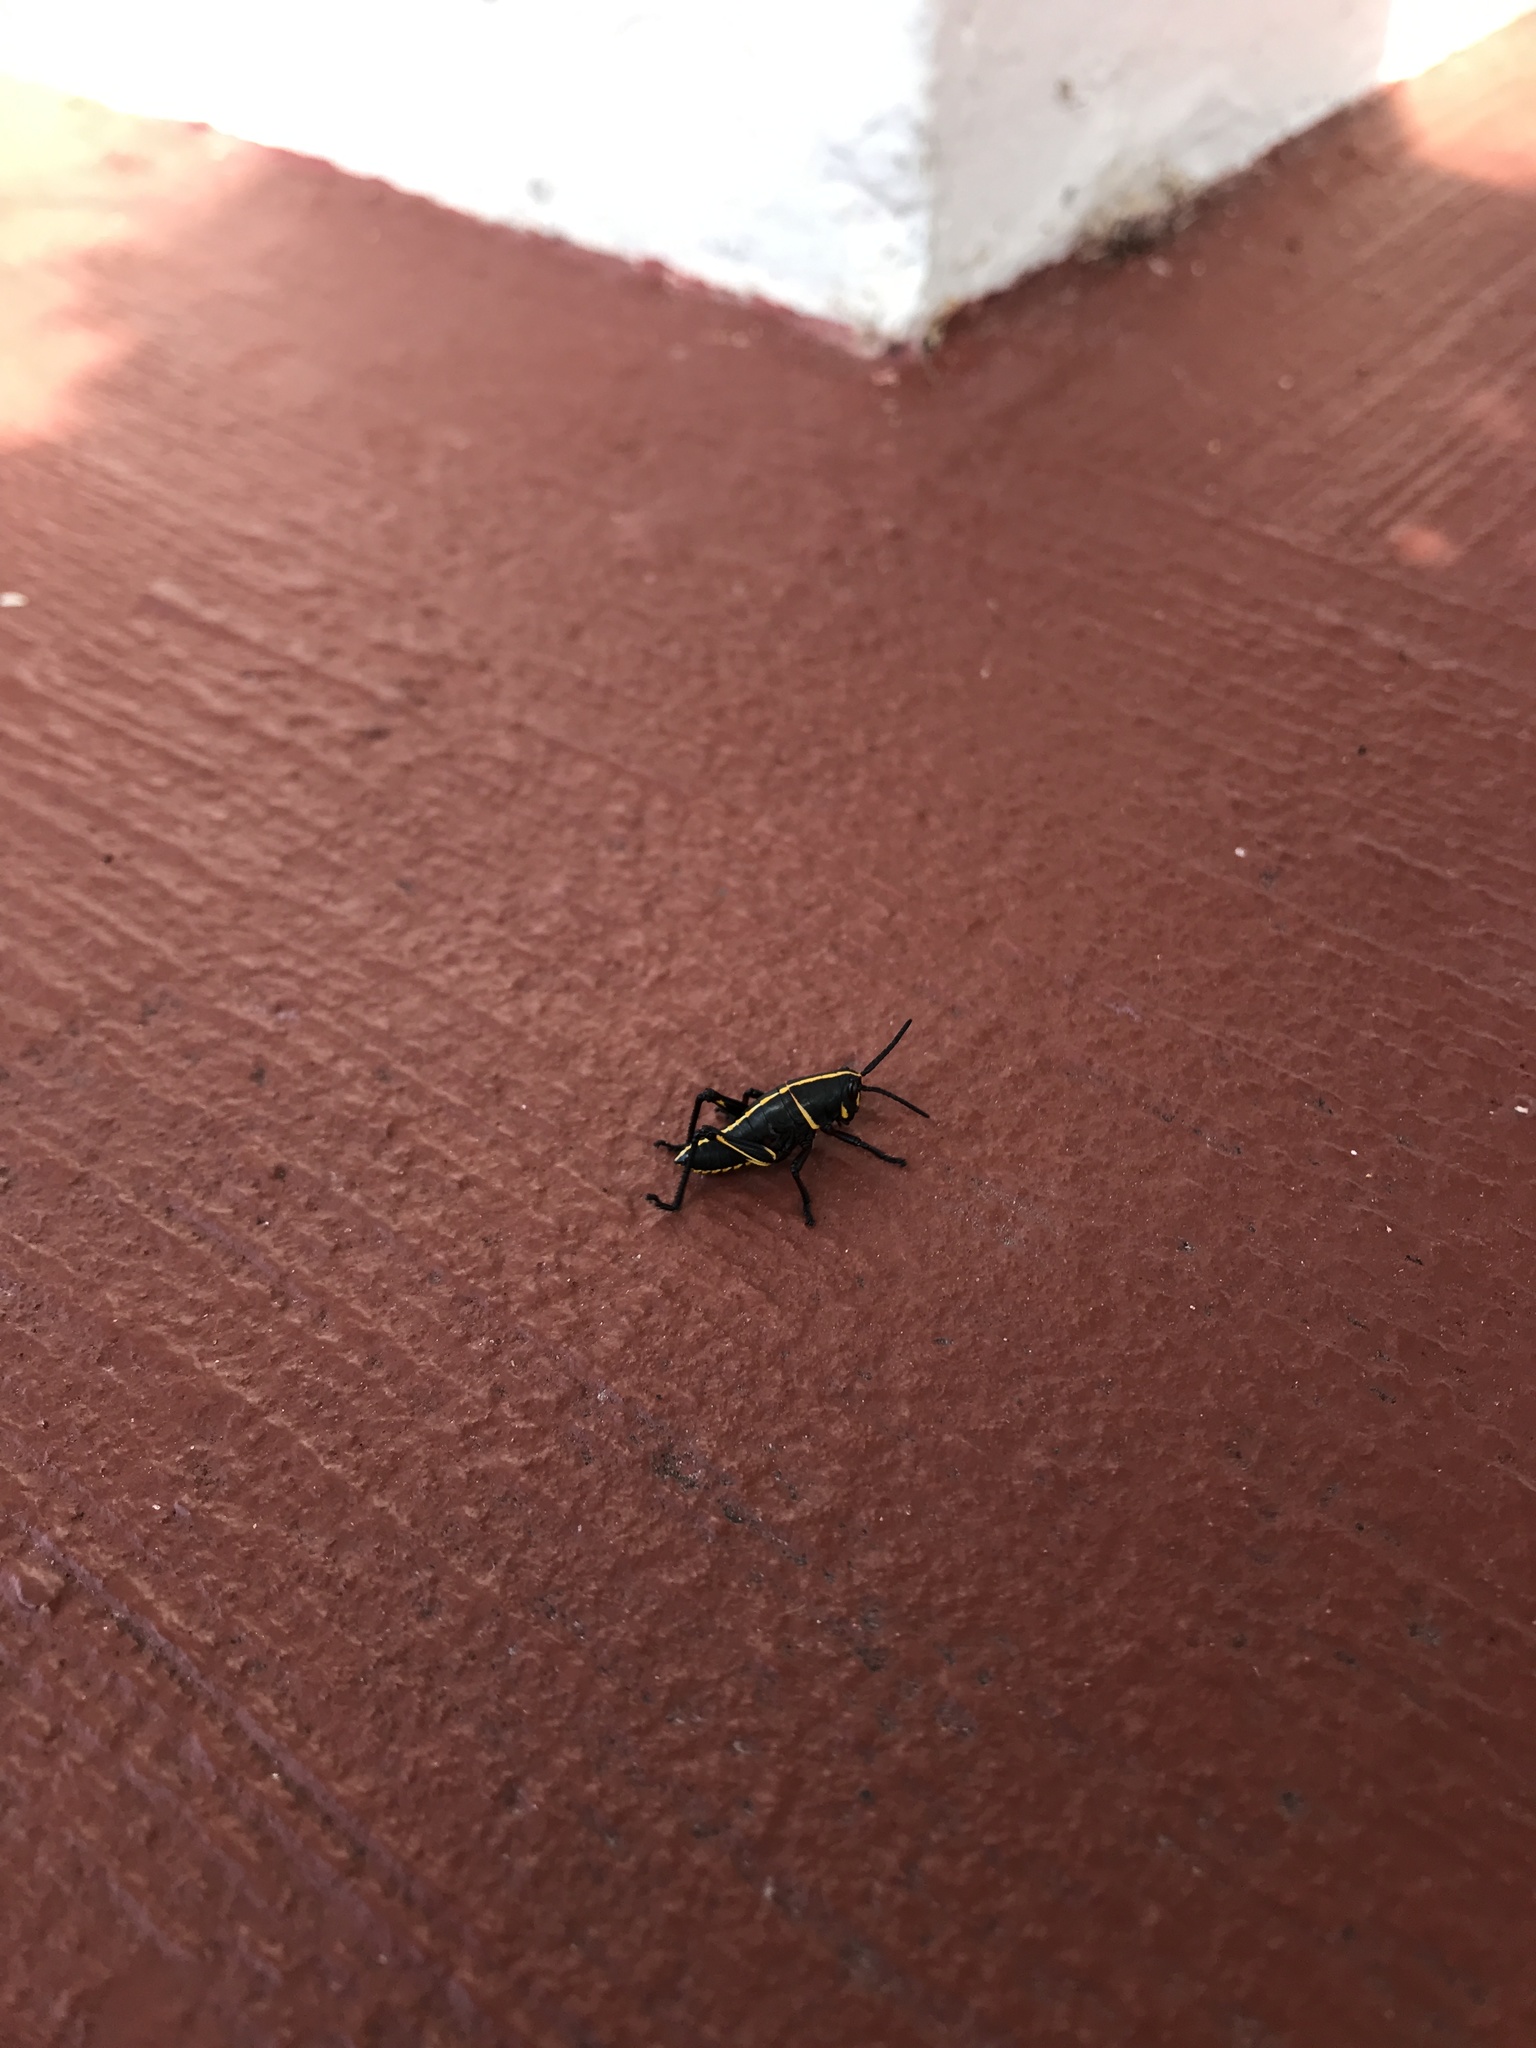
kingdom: Animalia
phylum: Arthropoda
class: Insecta
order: Orthoptera
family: Romaleidae
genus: Romalea
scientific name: Romalea microptera
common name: Eastern lubber grasshopper
